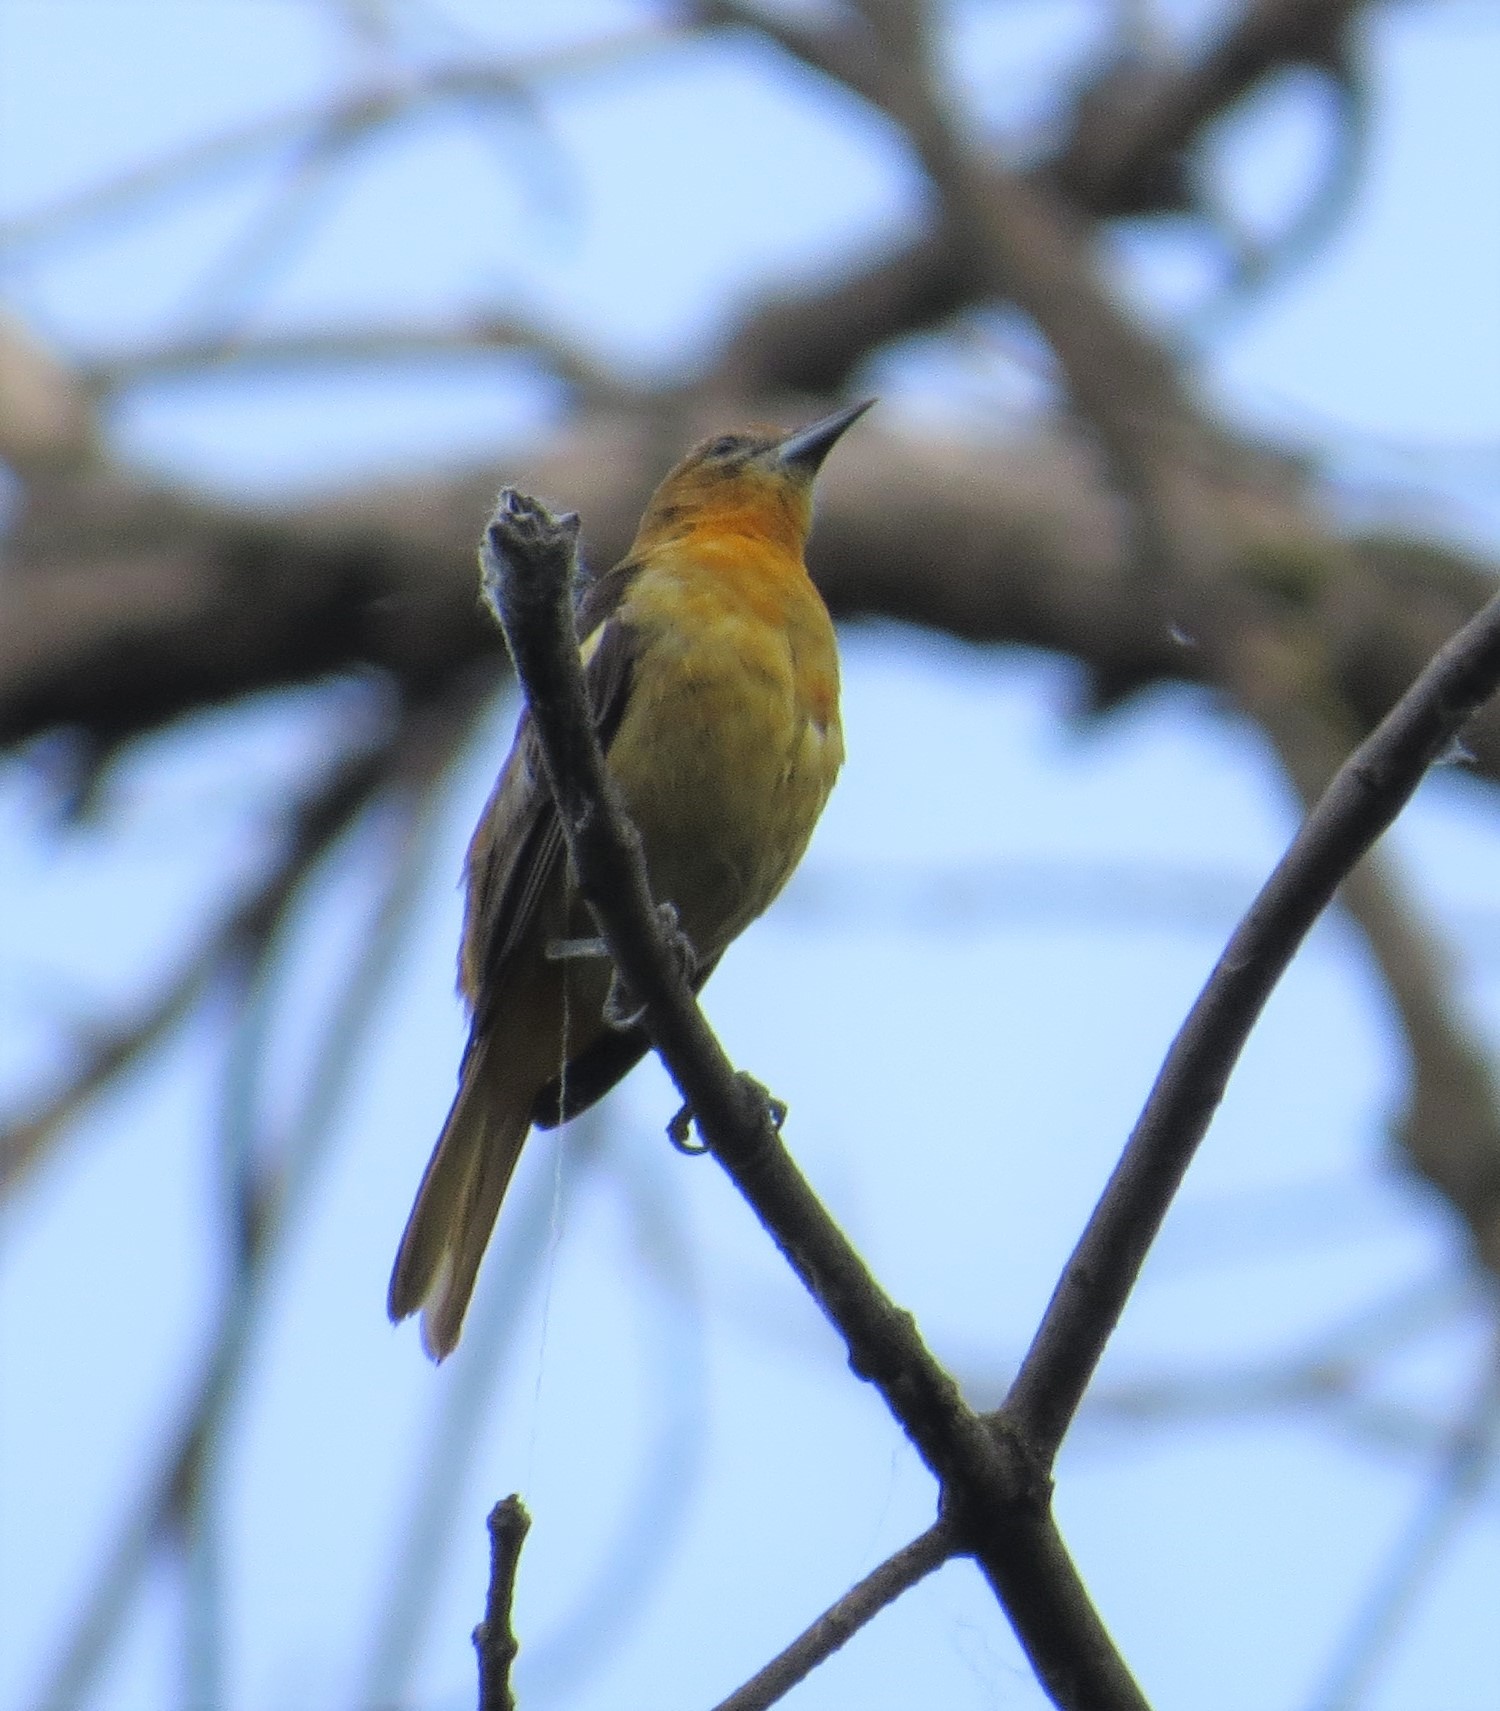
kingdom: Animalia
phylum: Chordata
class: Aves
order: Passeriformes
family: Icteridae
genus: Icterus
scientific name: Icterus galbula
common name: Baltimore oriole
